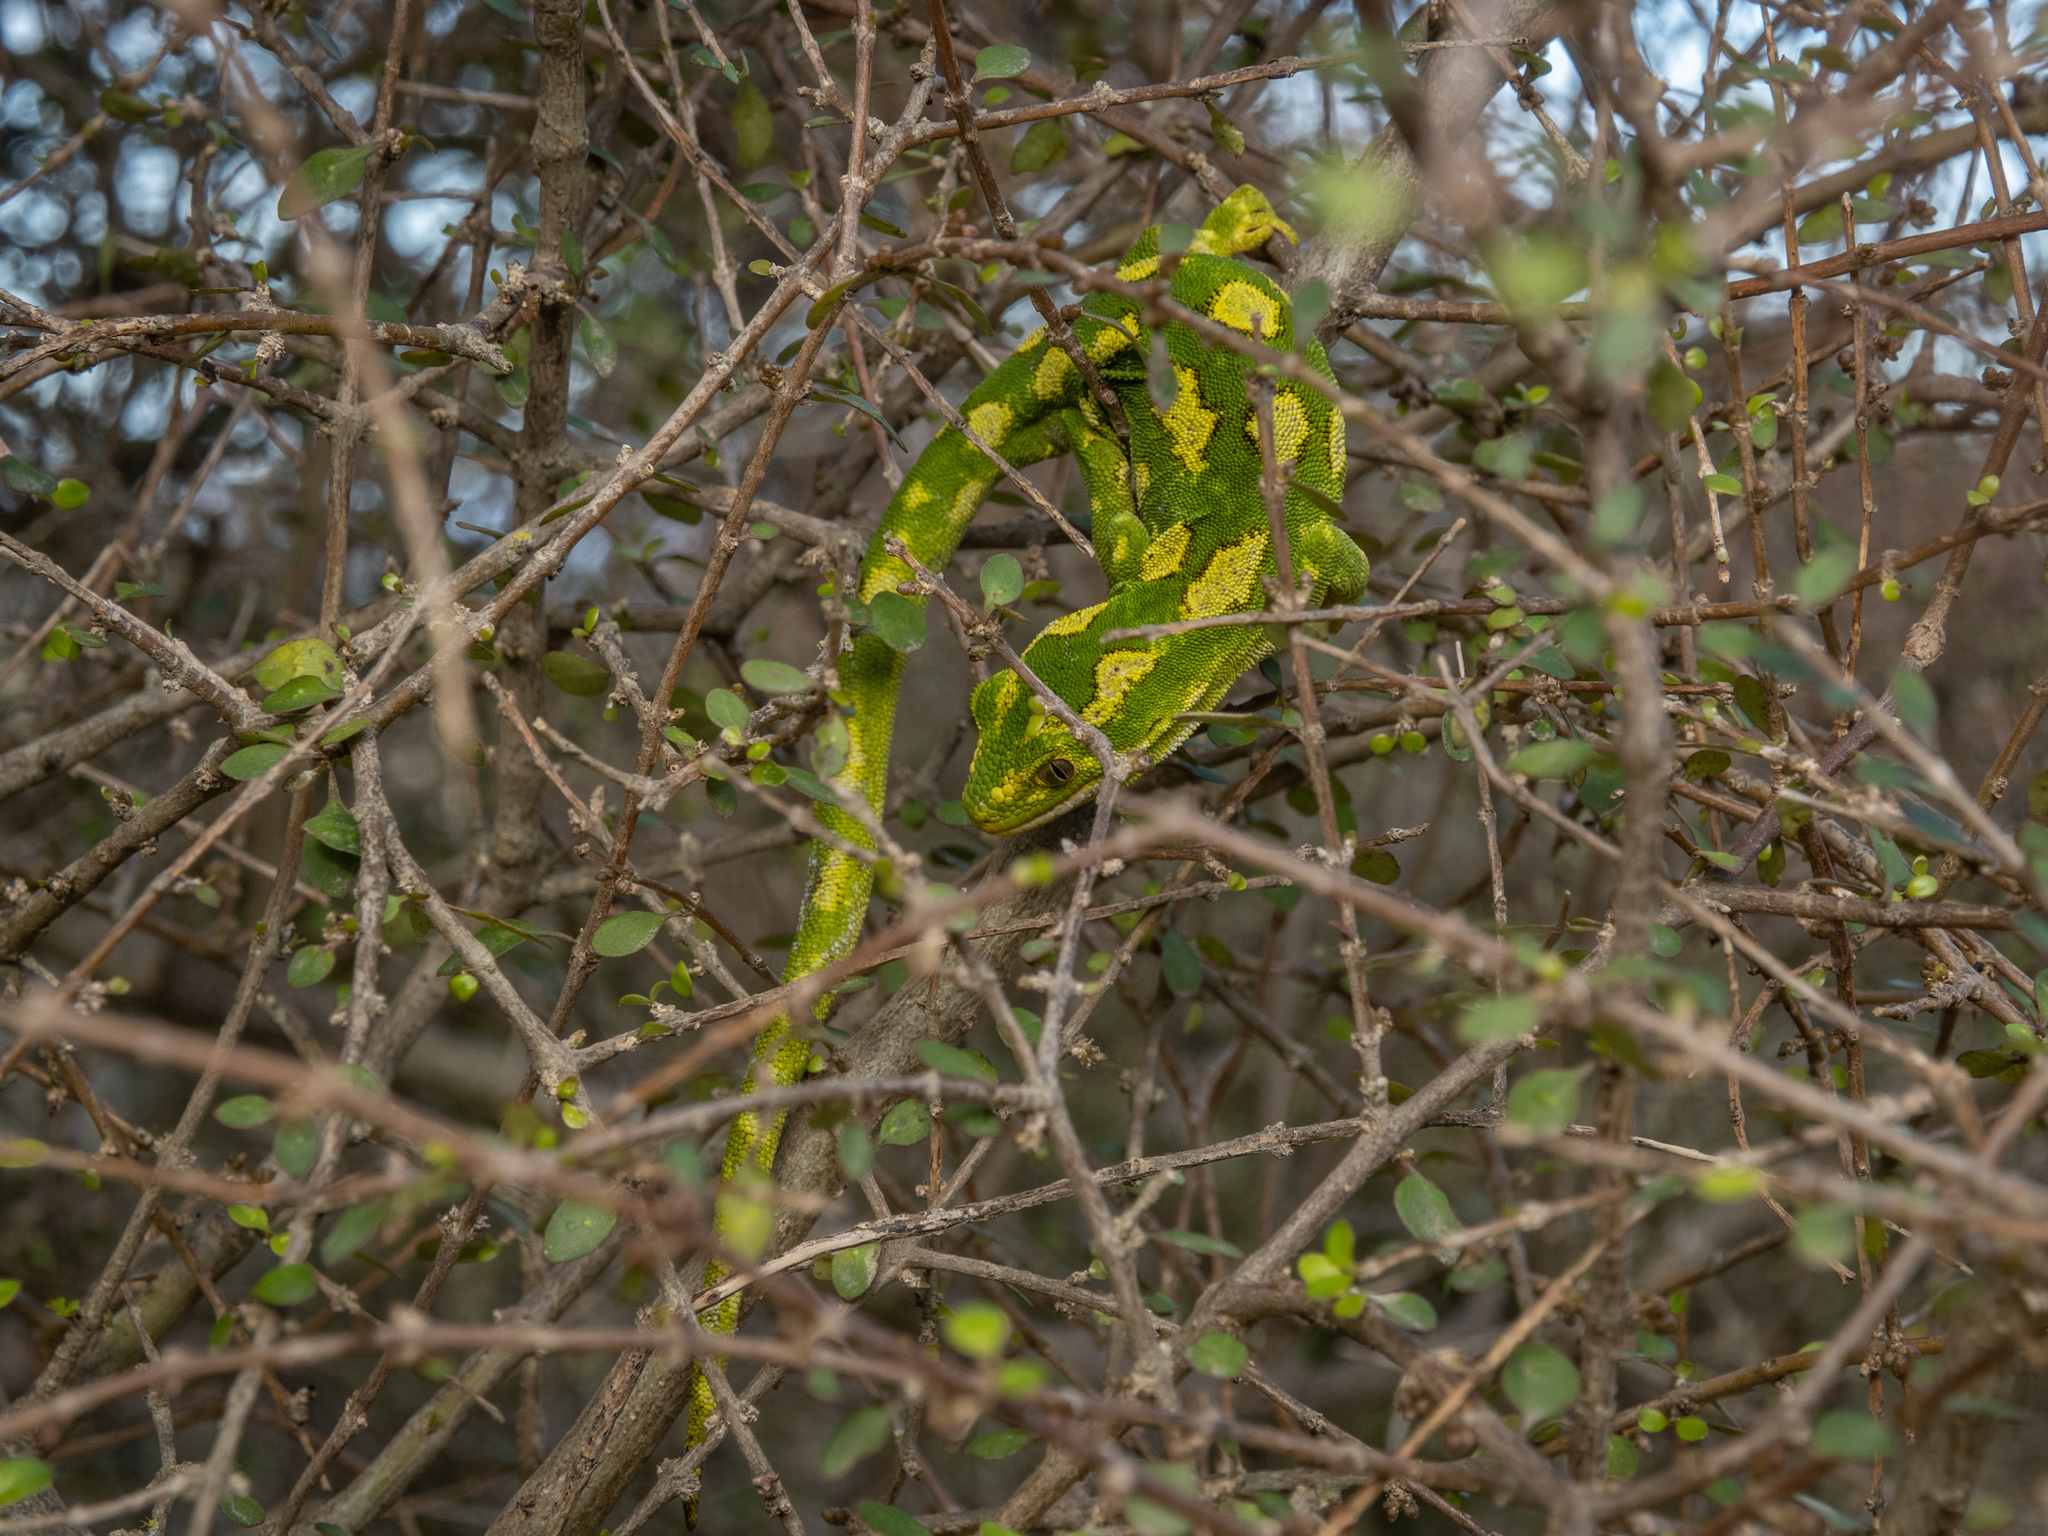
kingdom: Animalia
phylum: Chordata
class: Squamata
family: Diplodactylidae
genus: Naultinus
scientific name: Naultinus gemmeus
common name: Jewelled gecko
